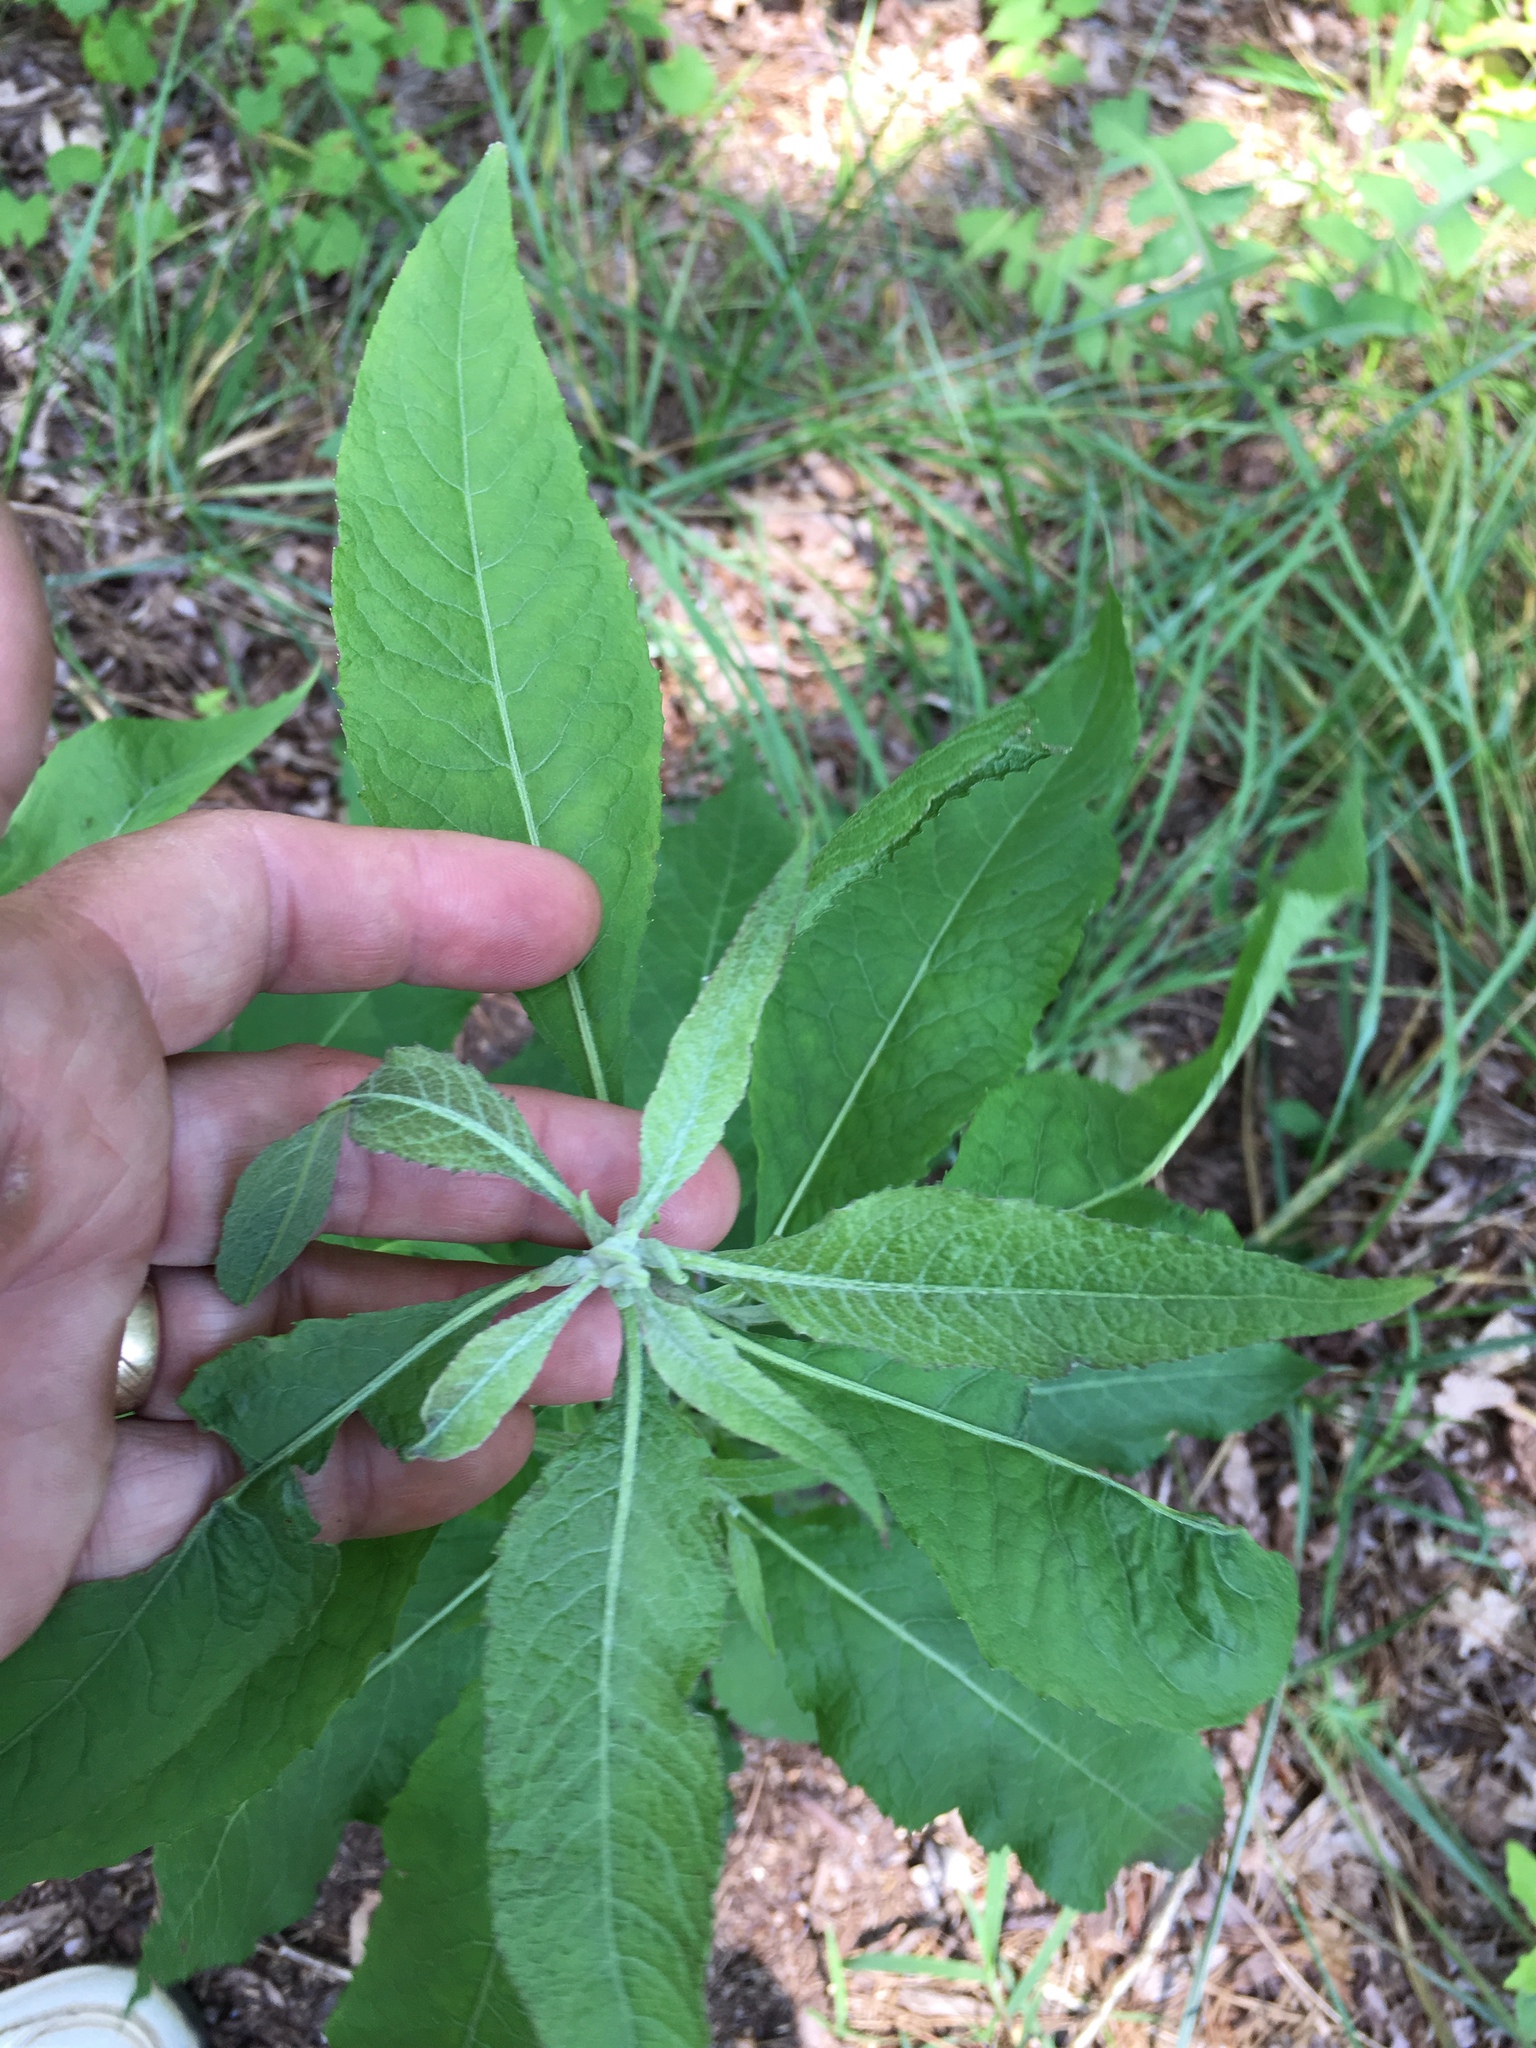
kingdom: Plantae
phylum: Tracheophyta
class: Magnoliopsida
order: Asterales
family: Asteraceae
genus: Pluchea
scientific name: Pluchea camphorata
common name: Camphor pluchea
